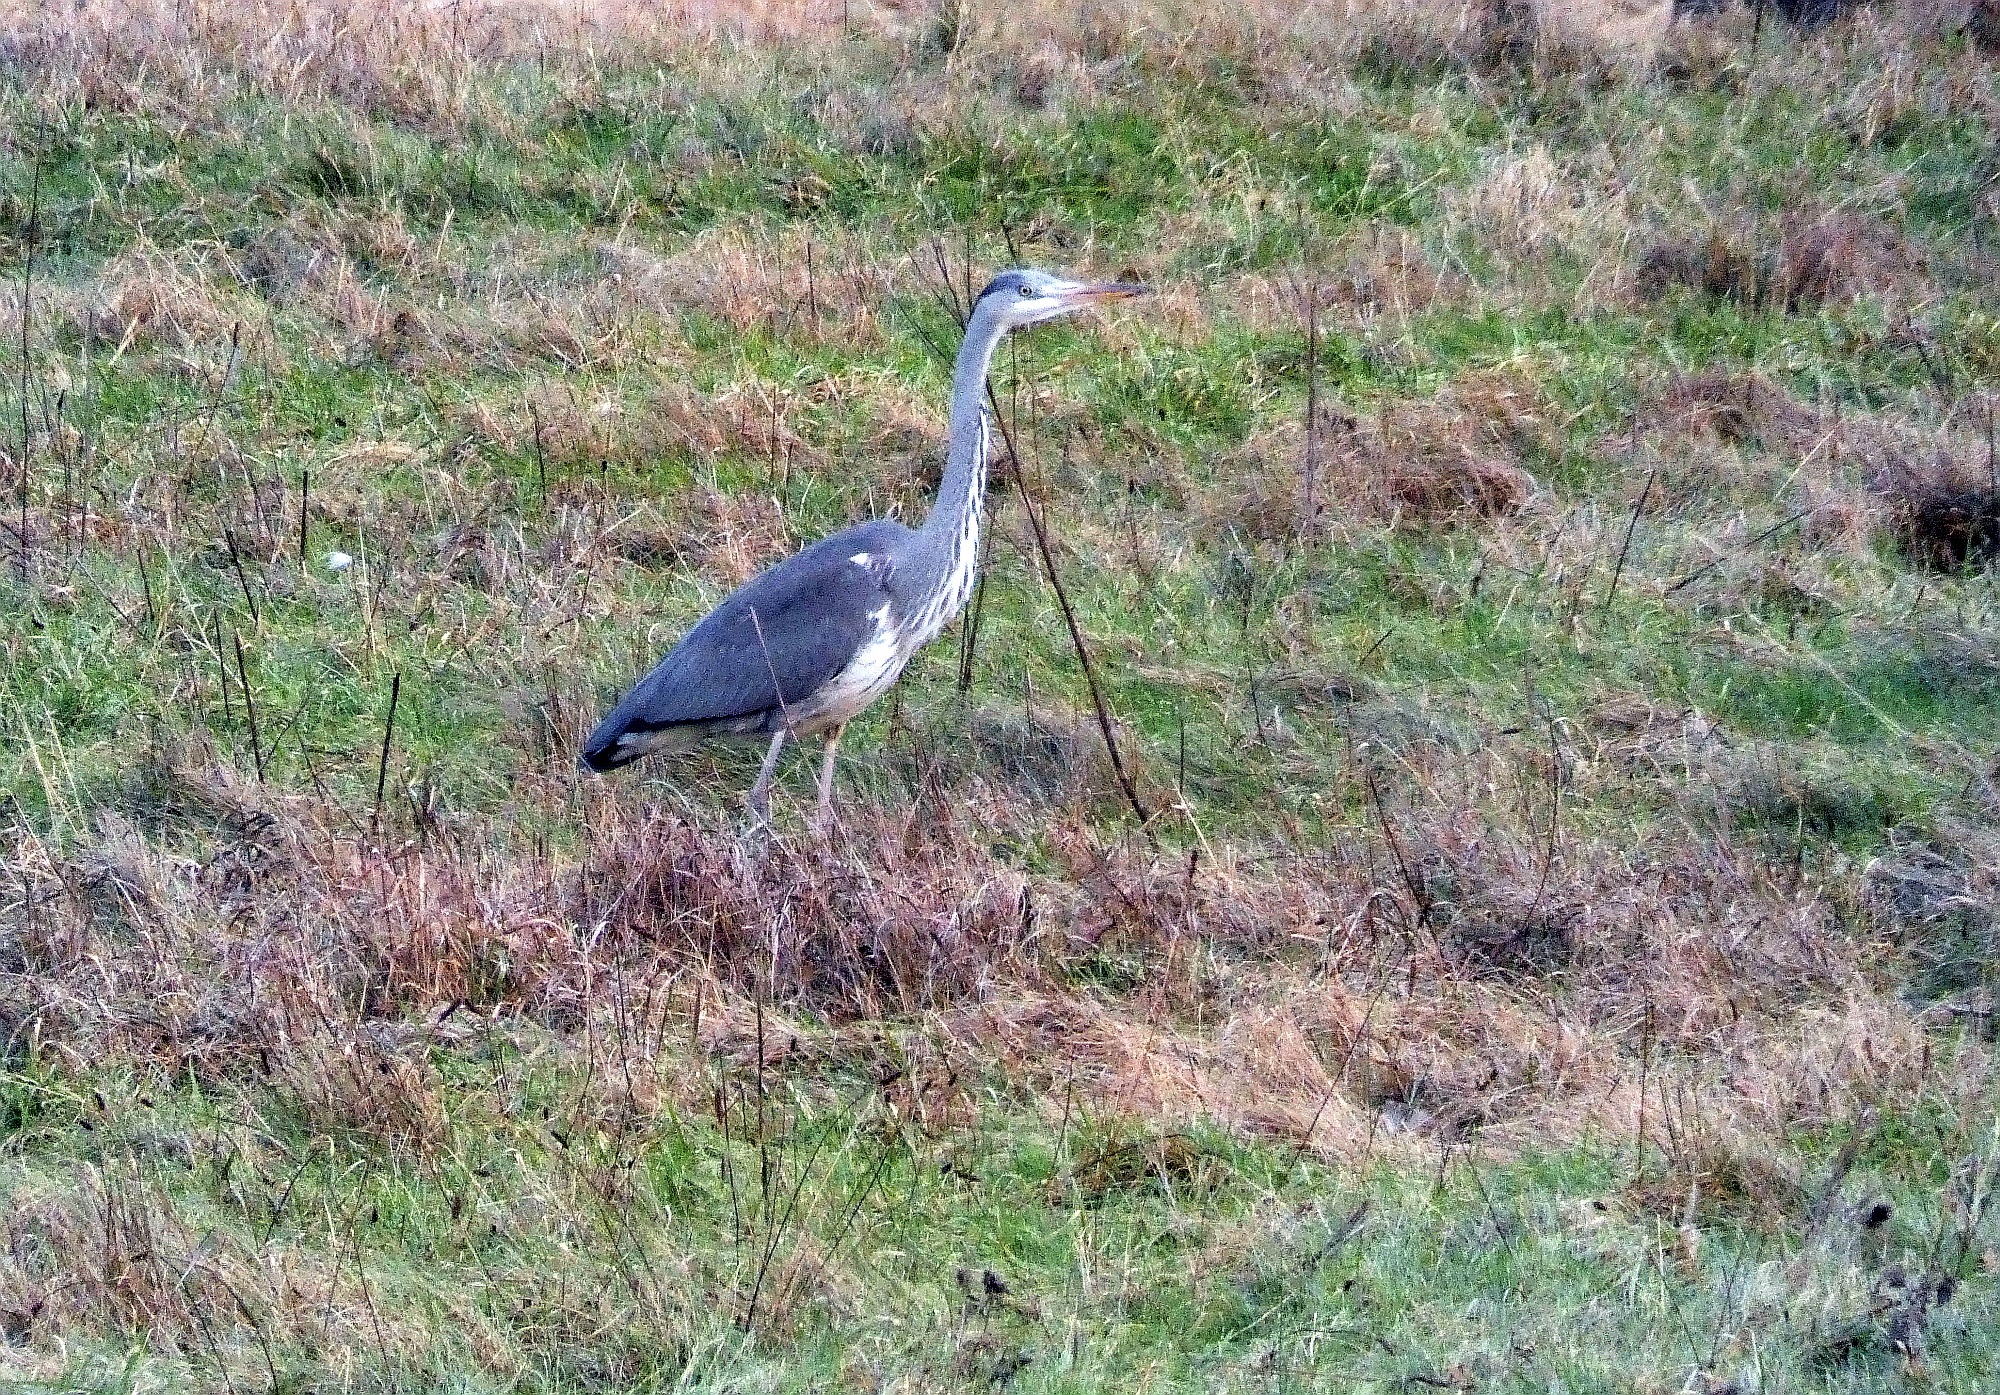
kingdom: Animalia
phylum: Chordata
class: Aves
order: Pelecaniformes
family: Ardeidae
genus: Ardea
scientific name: Ardea cinerea
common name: Grey heron
